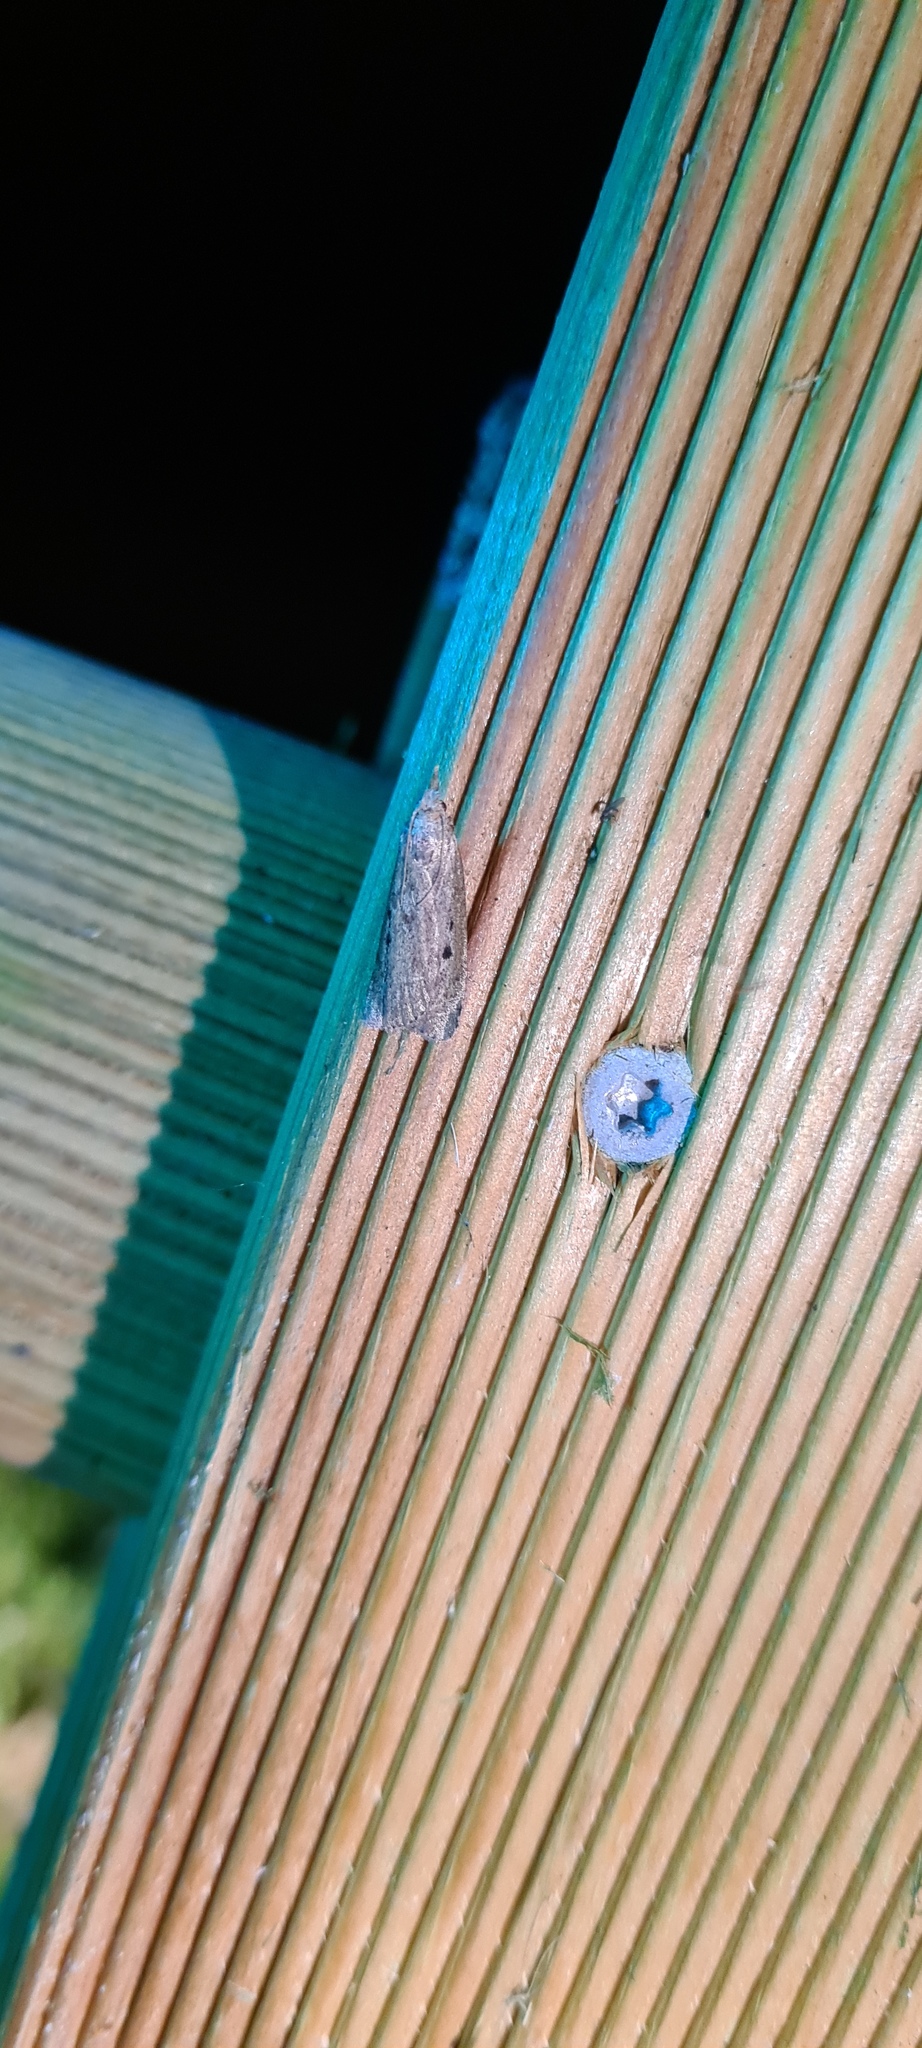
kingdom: Animalia
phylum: Arthropoda
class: Insecta
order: Lepidoptera
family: Pyralidae
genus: Aphomia
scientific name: Aphomia sociella
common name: Bee moth
